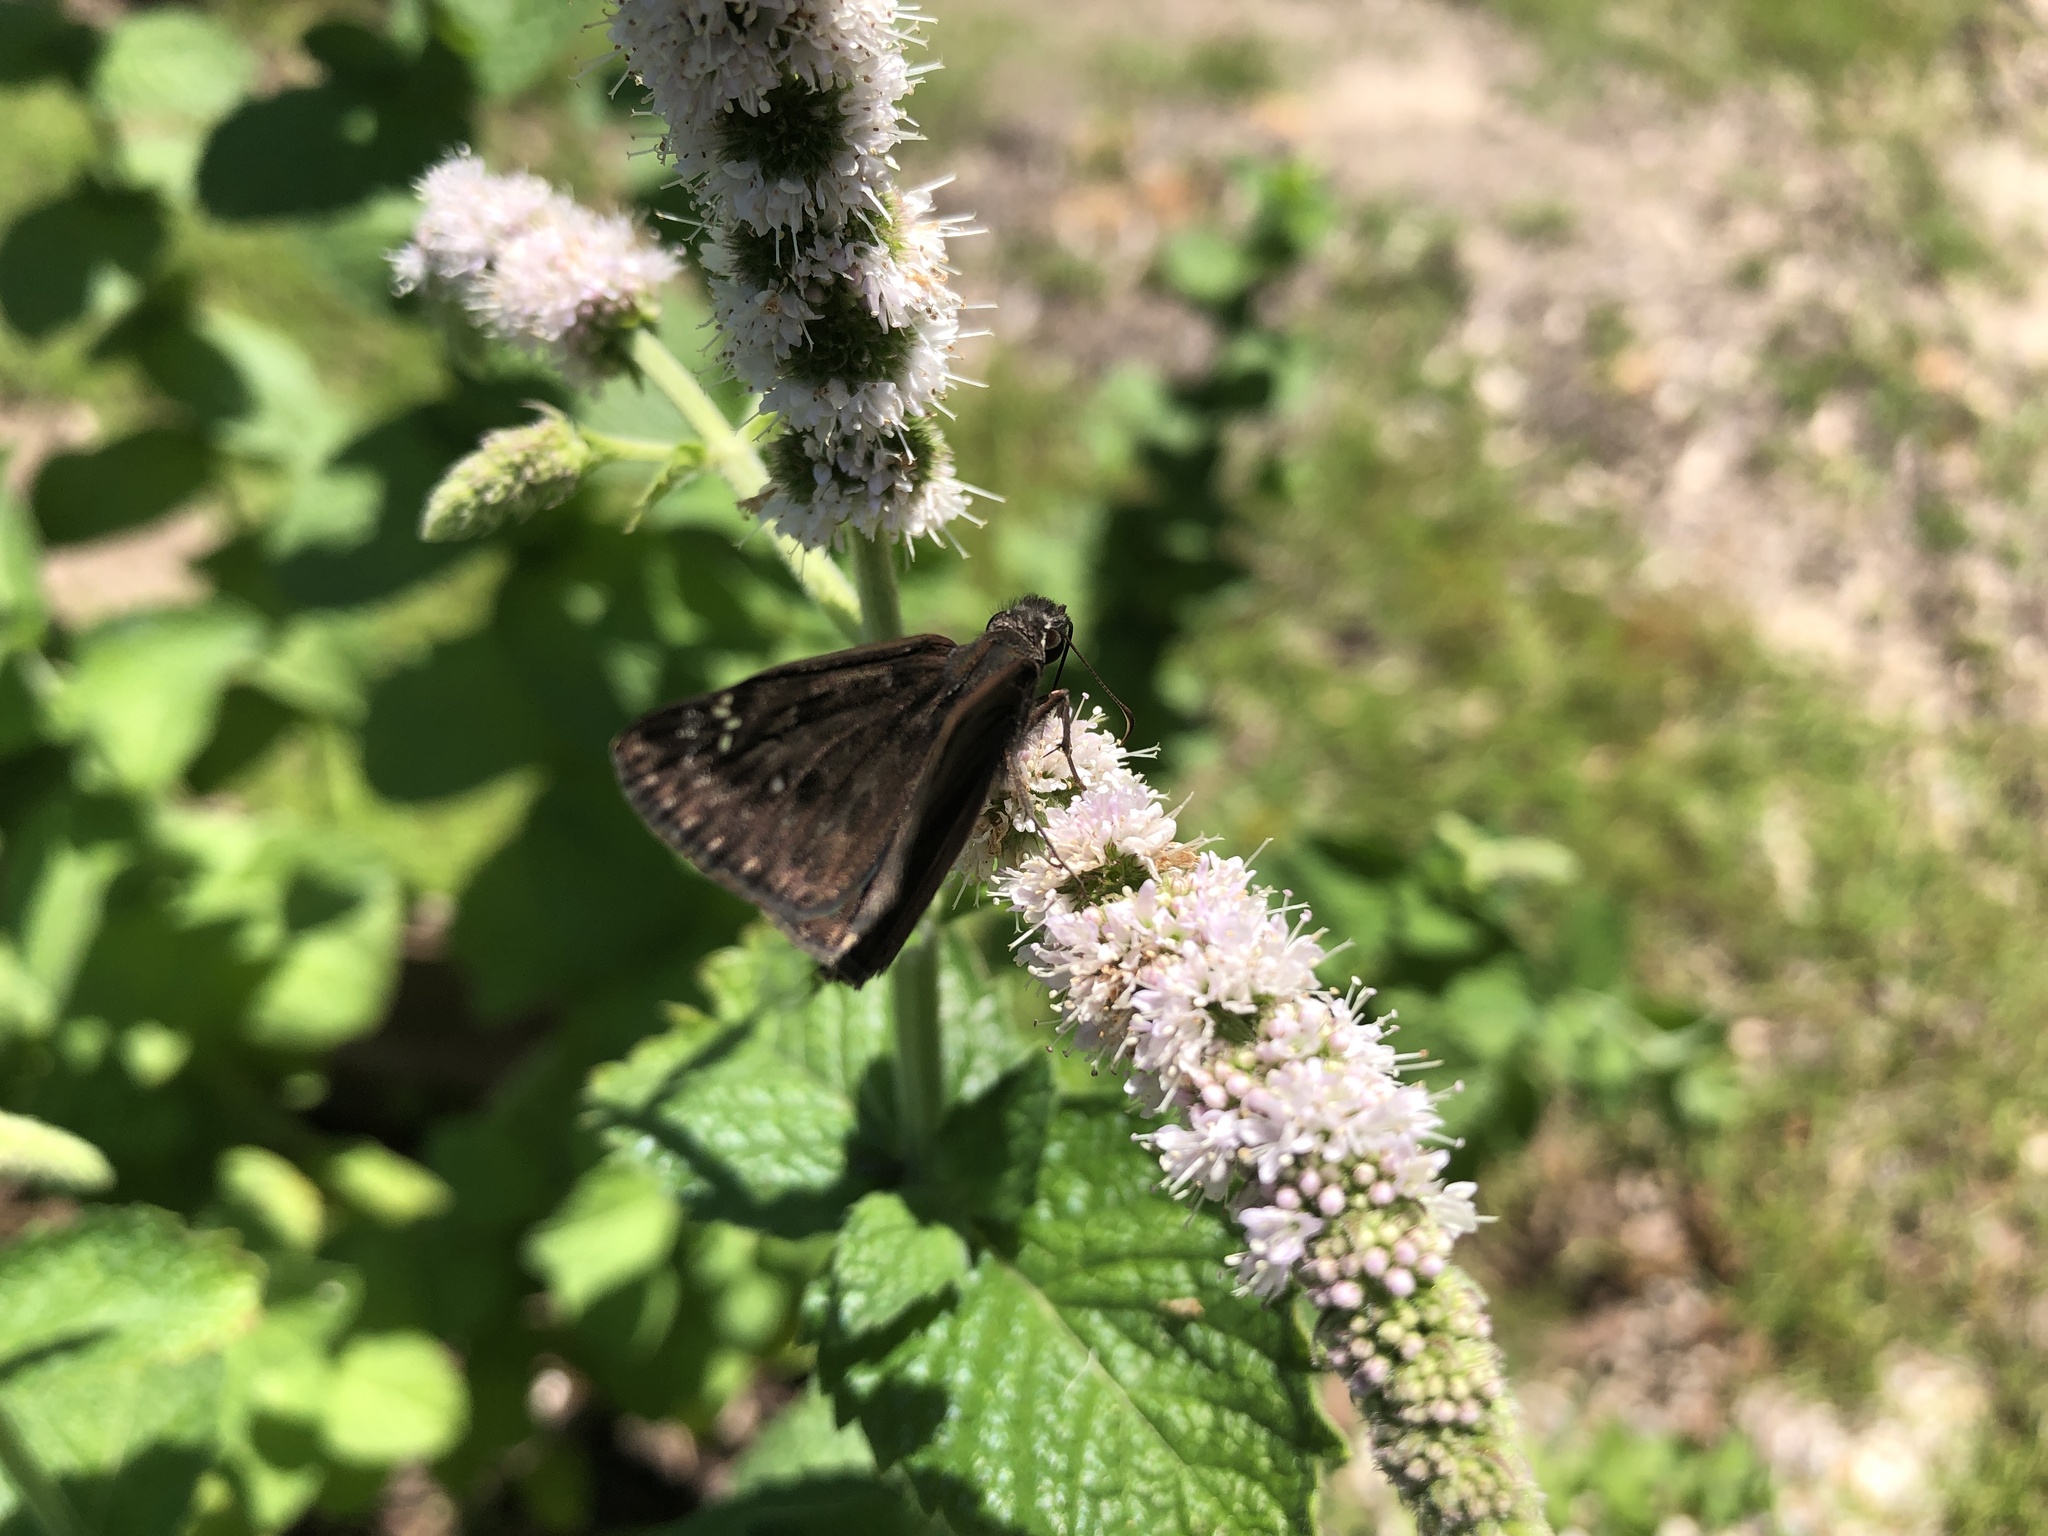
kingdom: Animalia
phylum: Arthropoda
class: Insecta
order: Lepidoptera
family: Hesperiidae
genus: Erynnis
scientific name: Erynnis horatius
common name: Horace's duskywing
